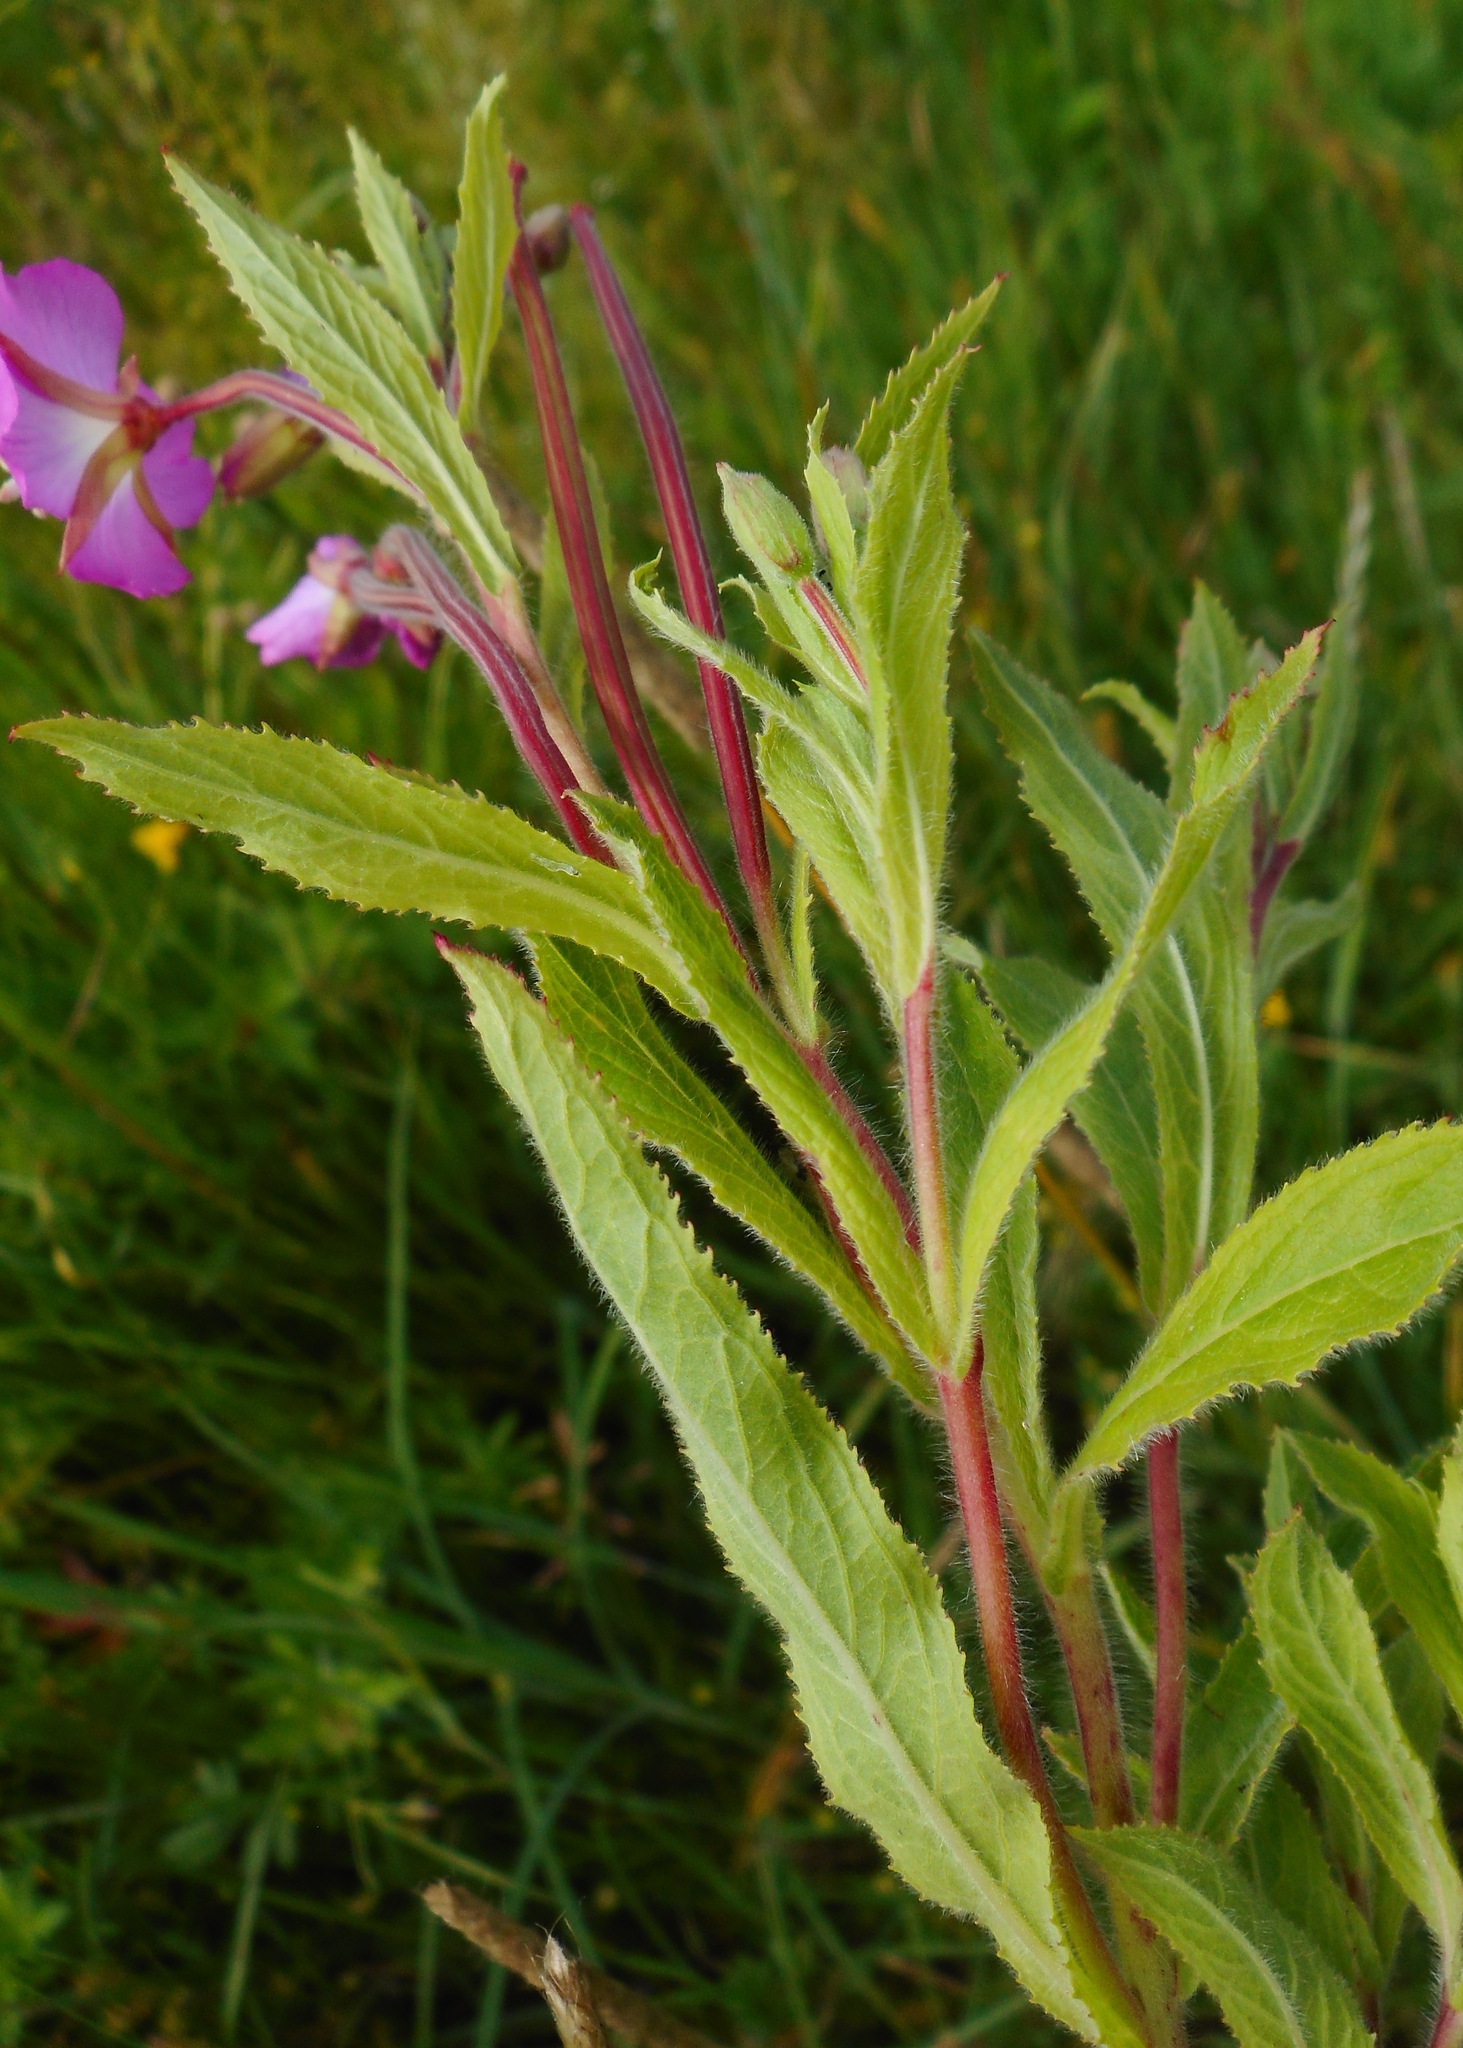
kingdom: Plantae
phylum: Tracheophyta
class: Magnoliopsida
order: Myrtales
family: Onagraceae
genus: Epilobium
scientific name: Epilobium hirsutum
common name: Great willowherb
